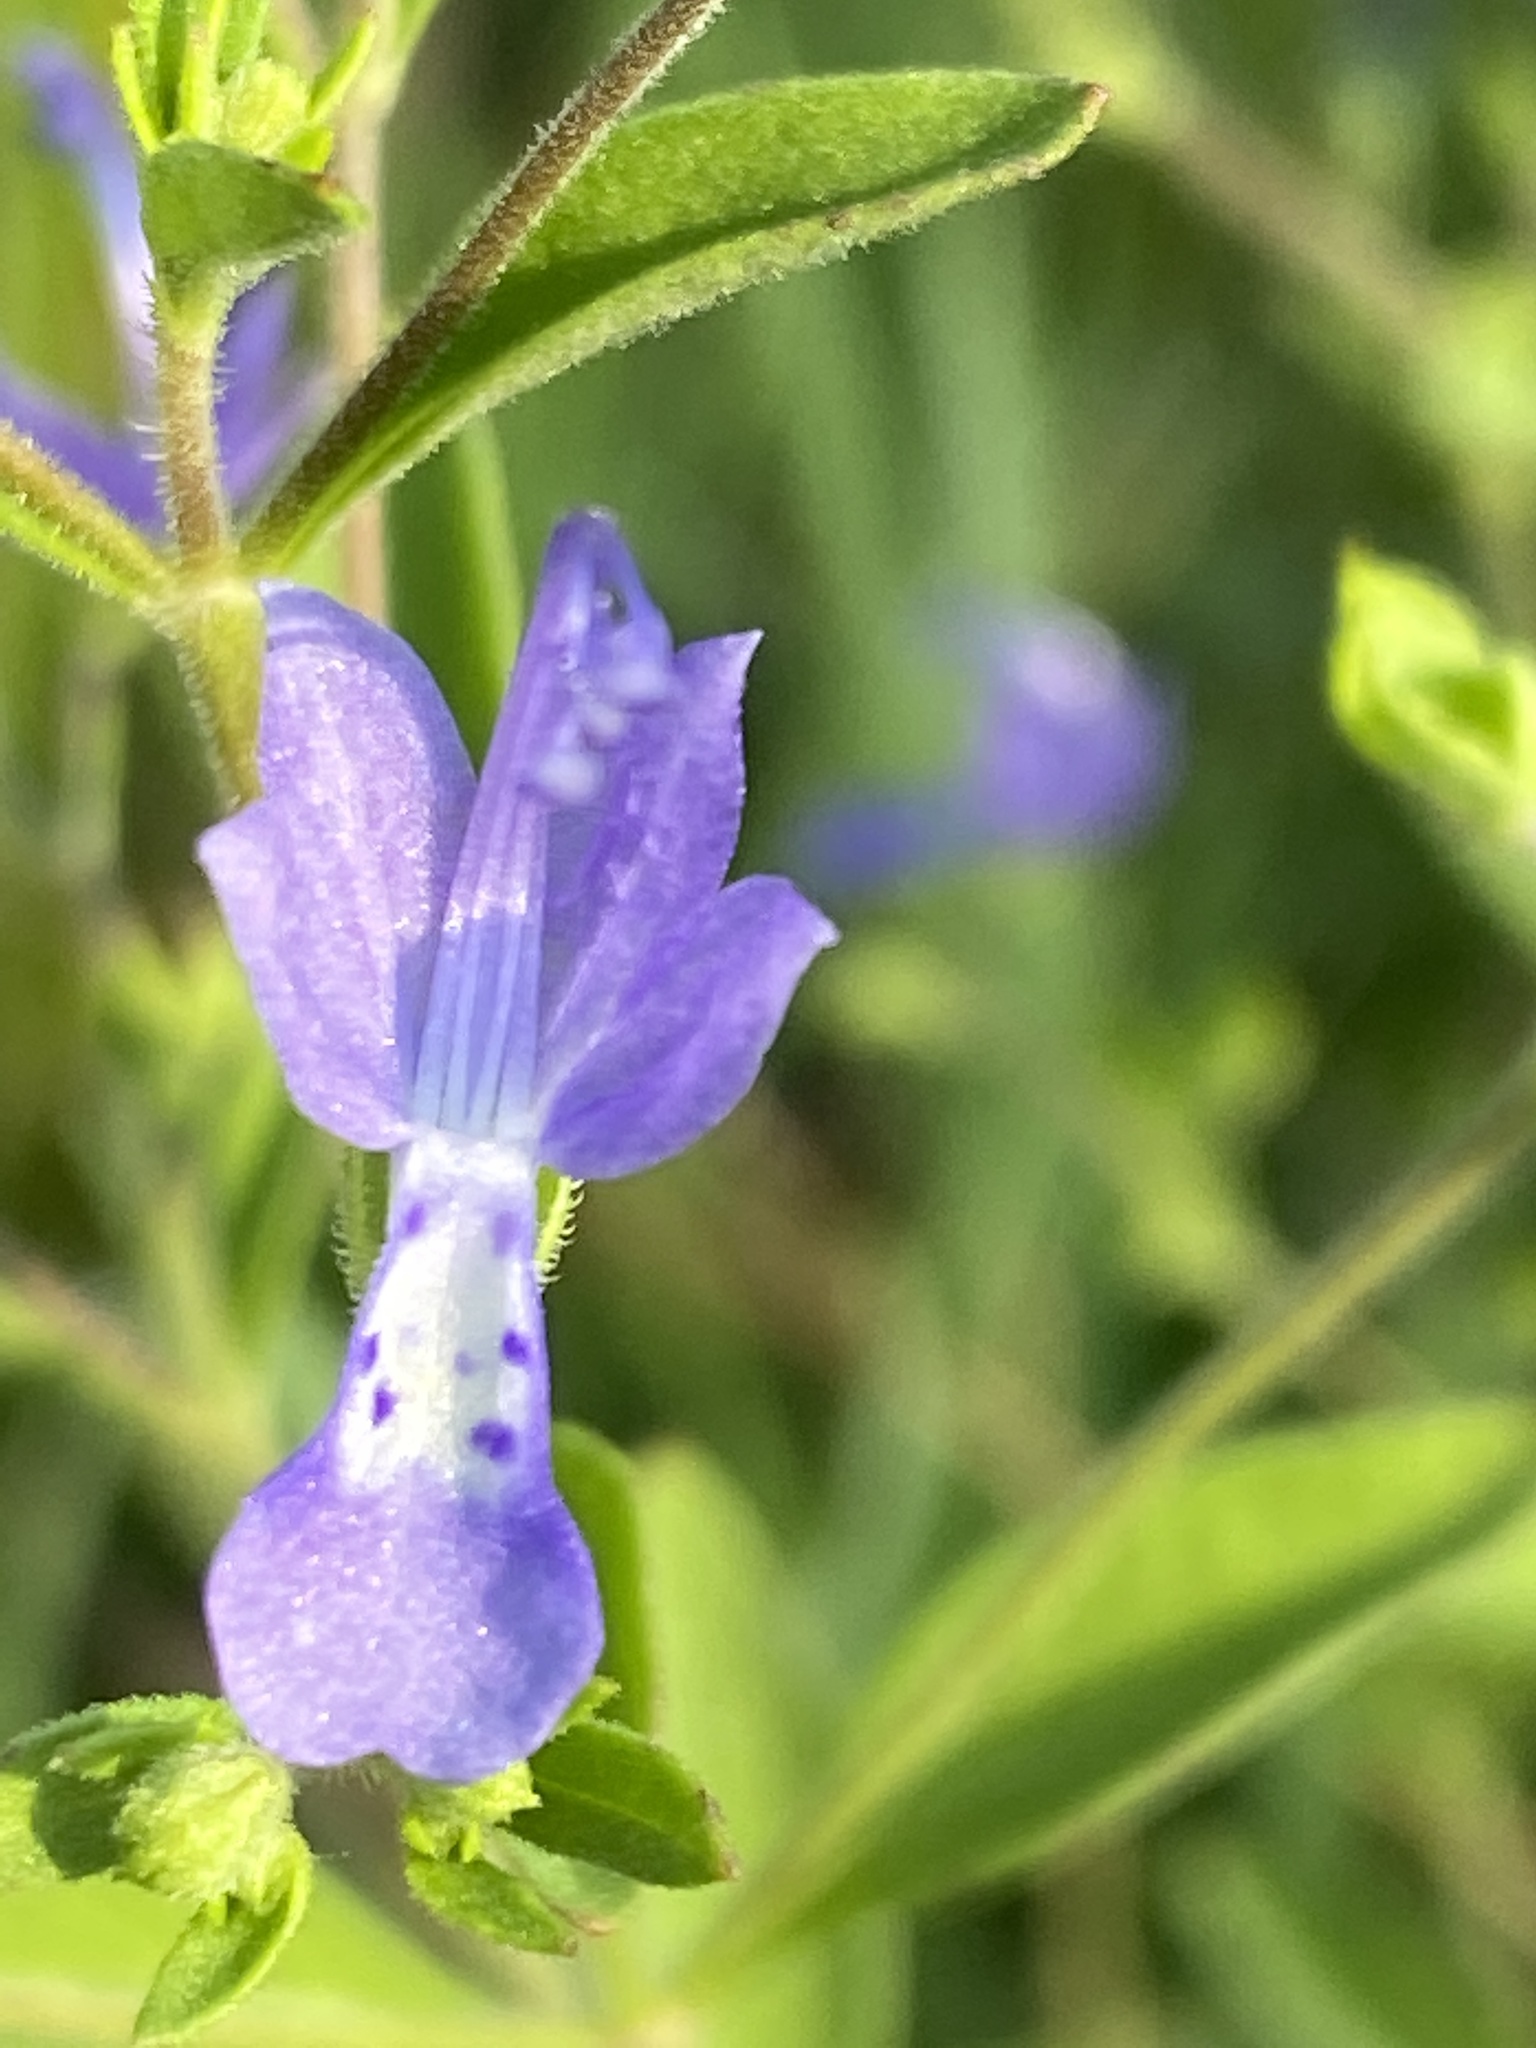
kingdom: Plantae
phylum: Tracheophyta
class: Magnoliopsida
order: Lamiales
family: Lamiaceae
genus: Trichostema
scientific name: Trichostema dichotomum
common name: Bastard pennyroyal
